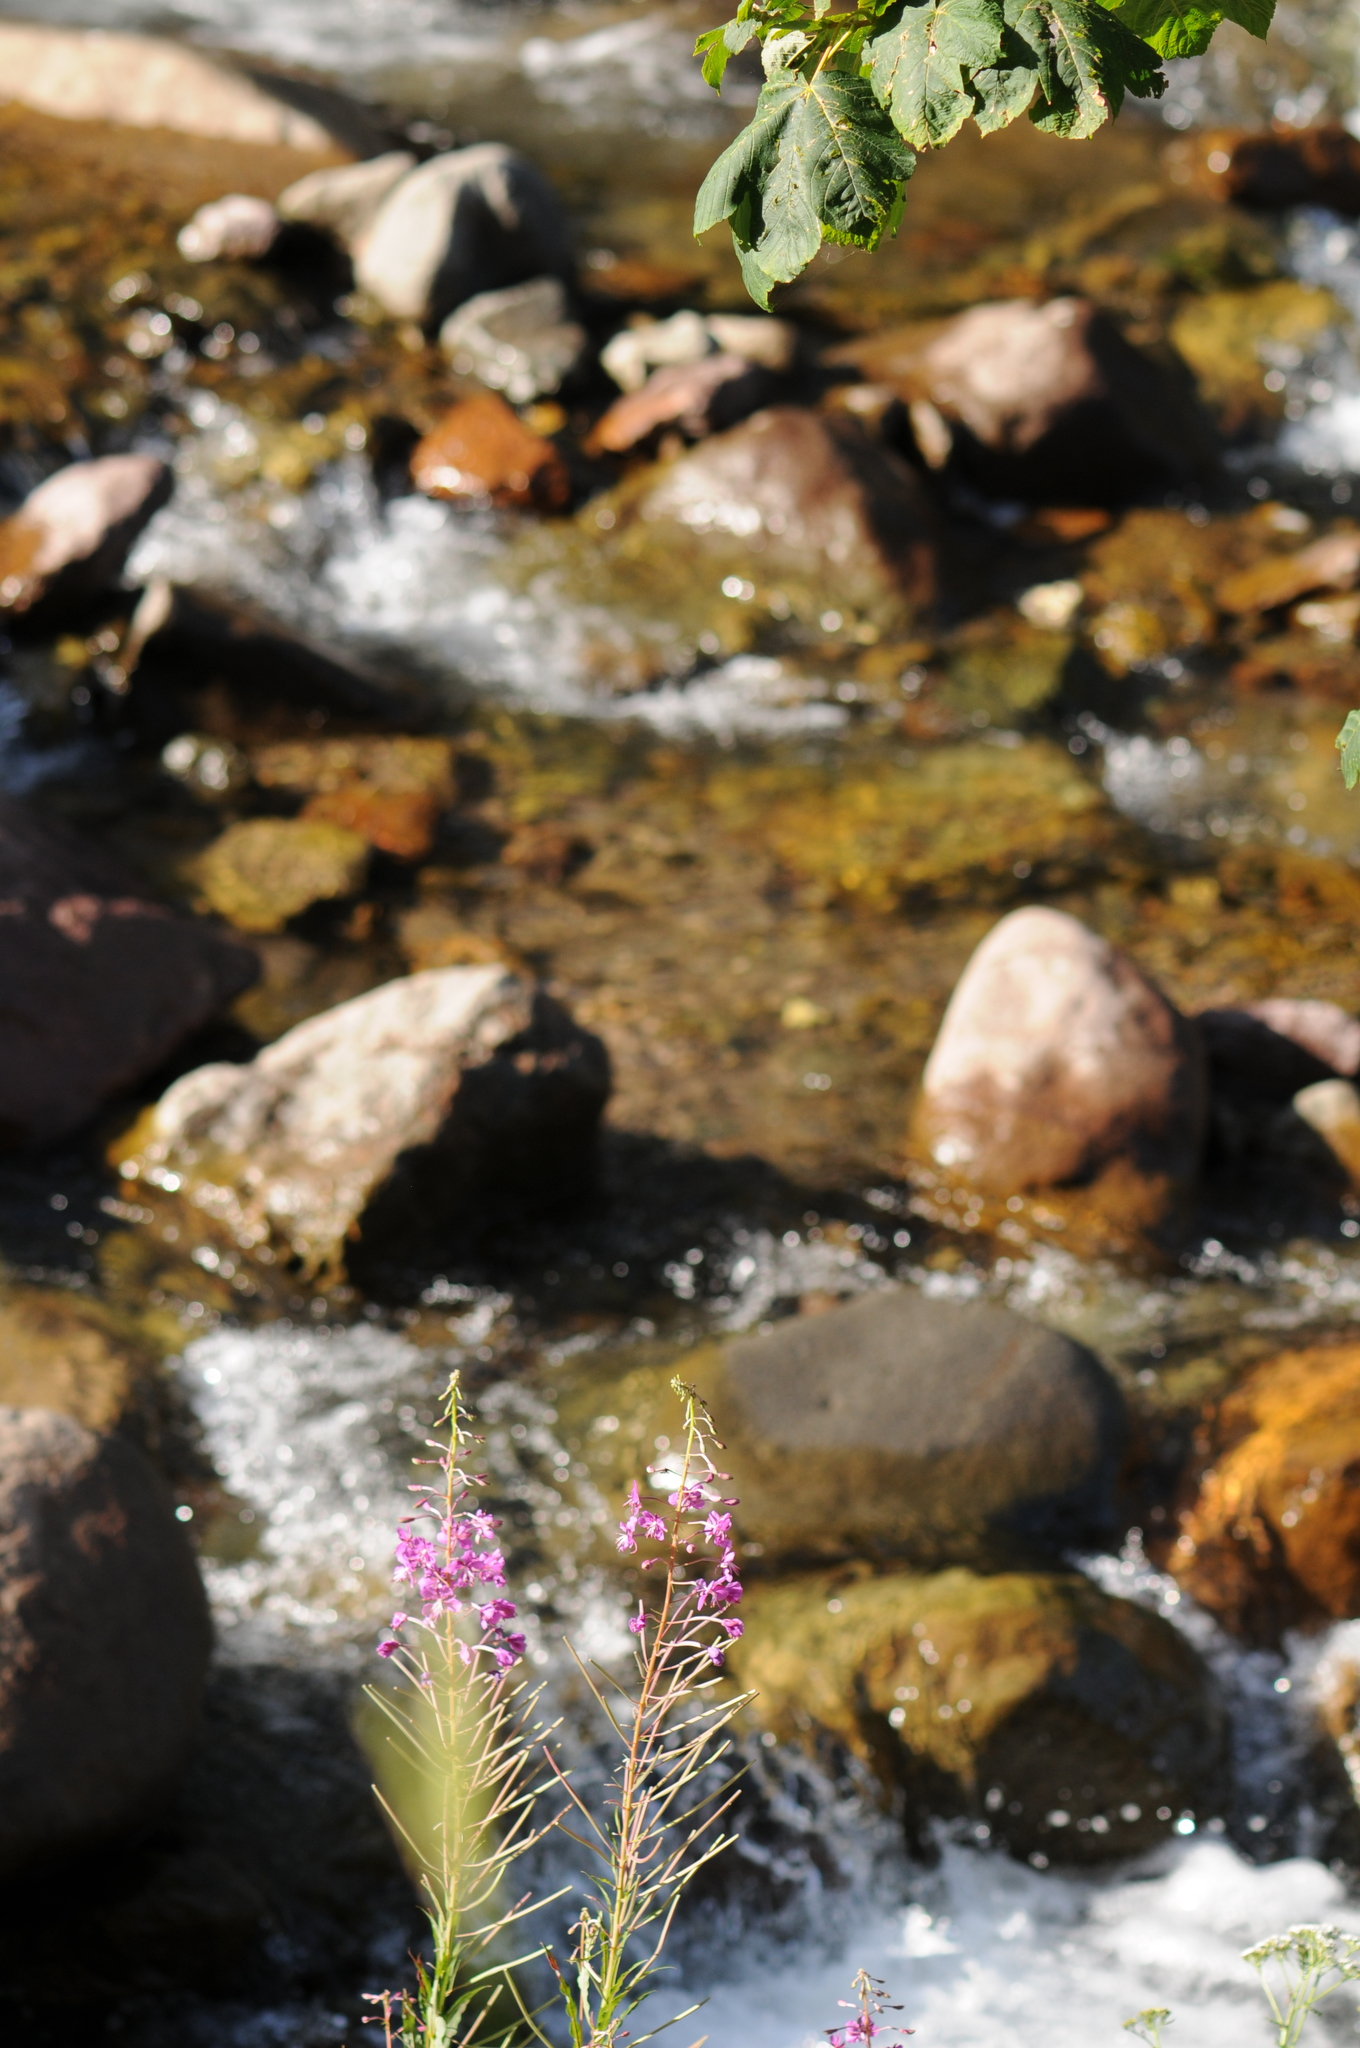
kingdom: Plantae
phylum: Tracheophyta
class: Magnoliopsida
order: Myrtales
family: Onagraceae
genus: Chamaenerion
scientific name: Chamaenerion angustifolium
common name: Fireweed
